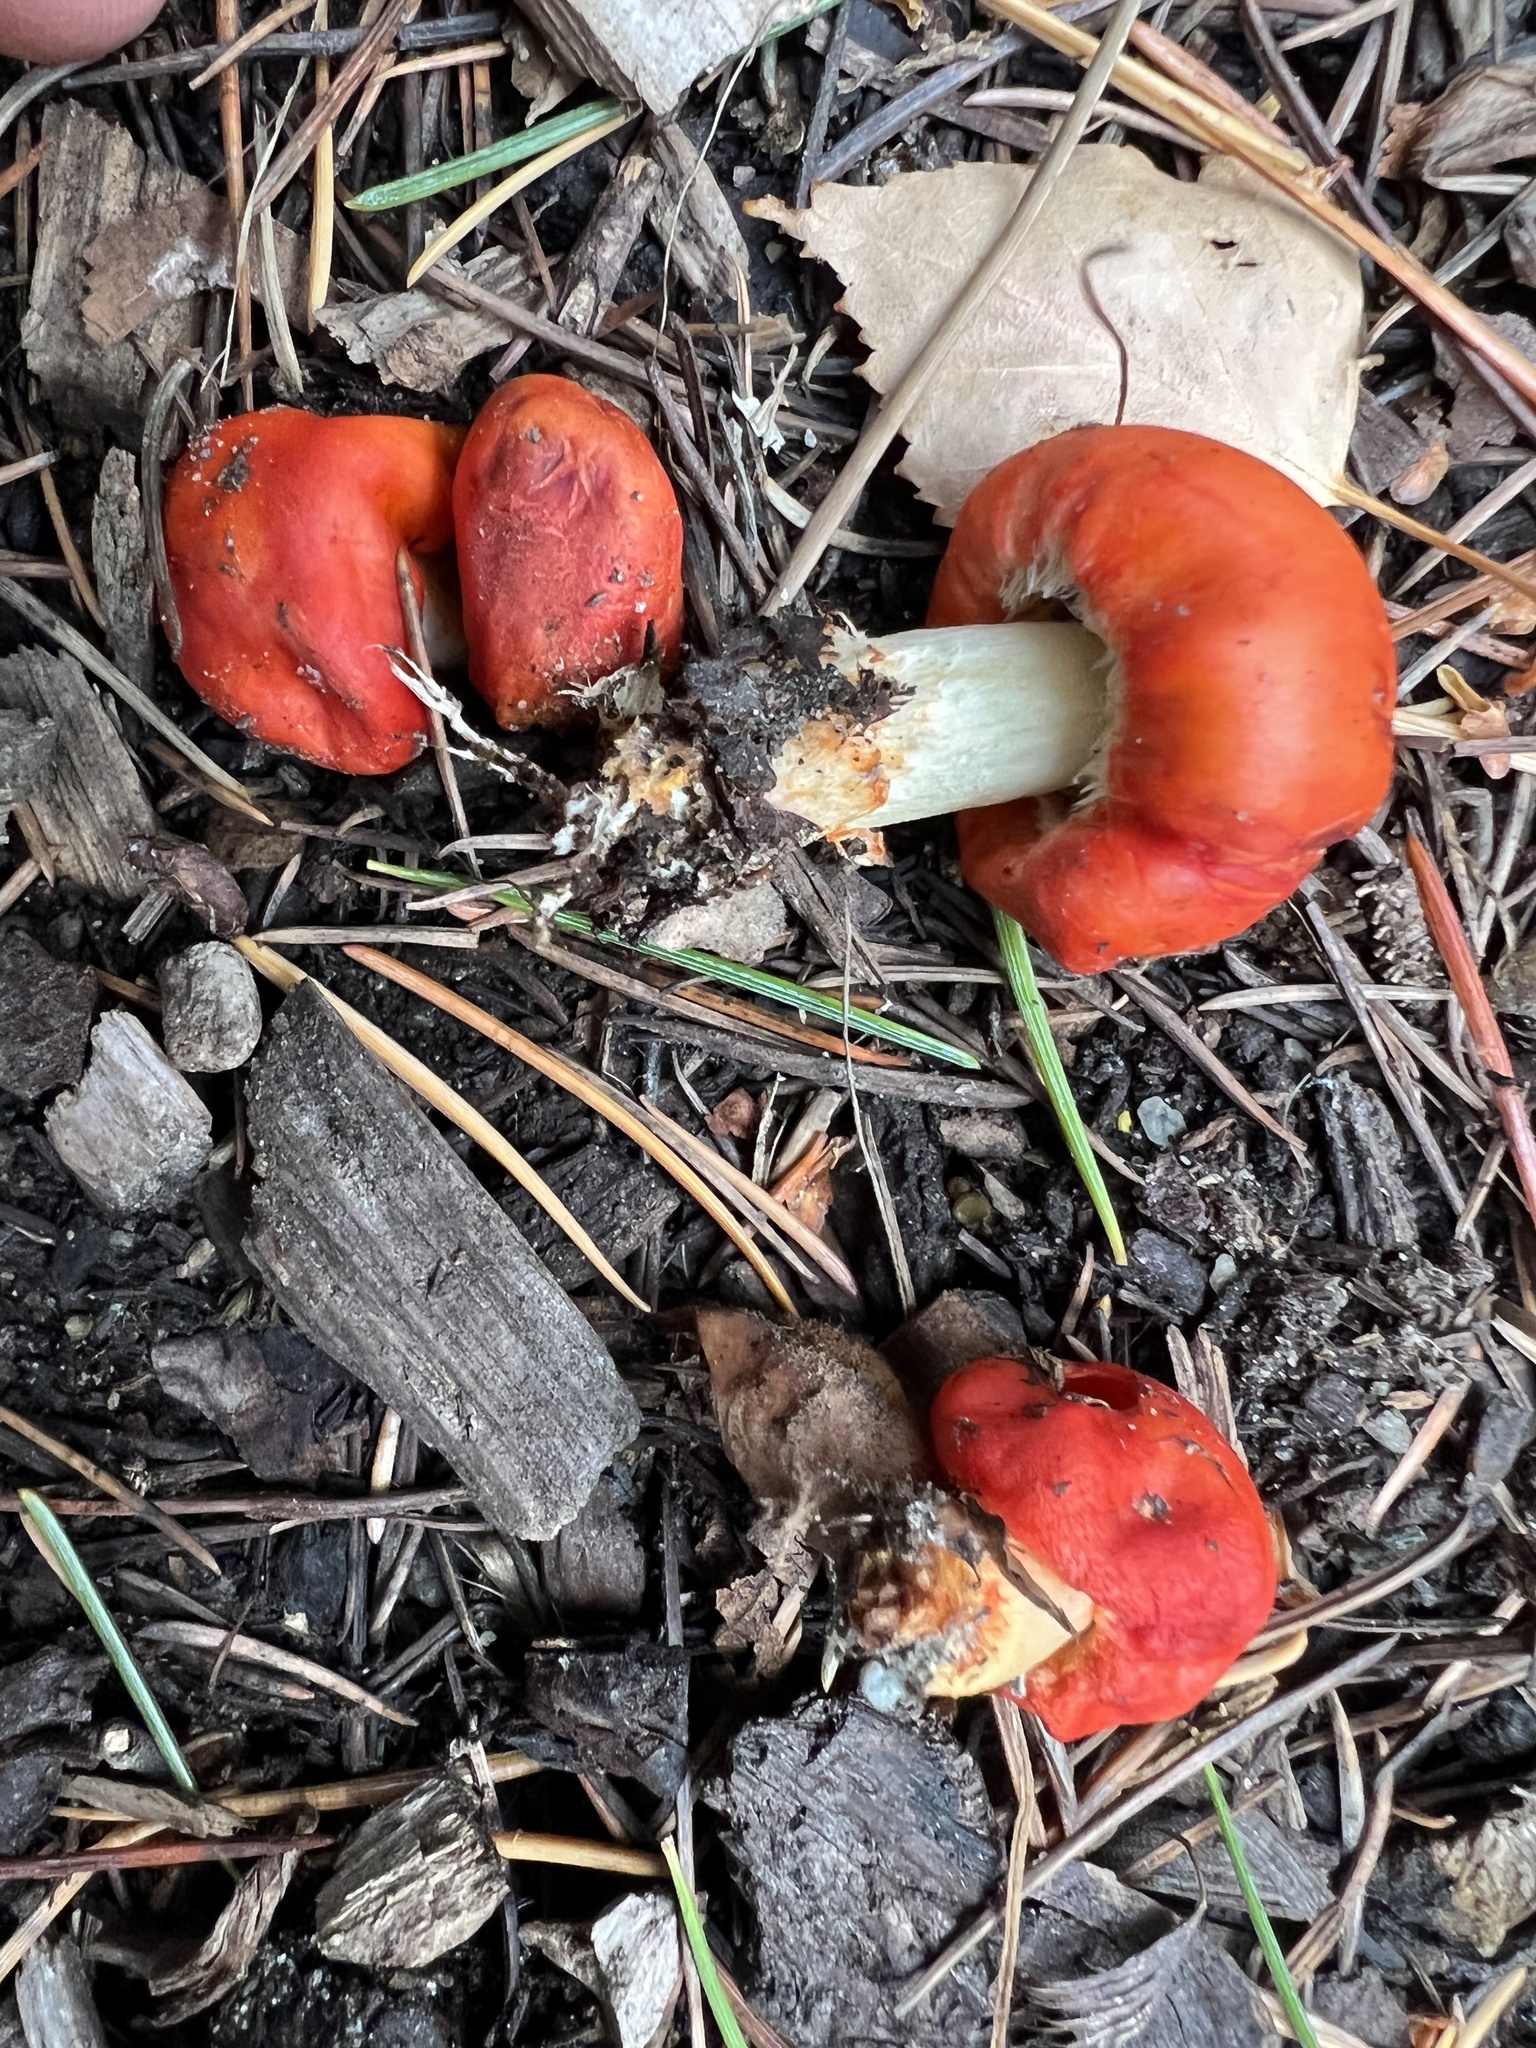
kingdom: Fungi
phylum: Basidiomycota
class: Agaricomycetes
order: Agaricales
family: Strophariaceae
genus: Leratiomyces
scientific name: Leratiomyces erythrocephalus
